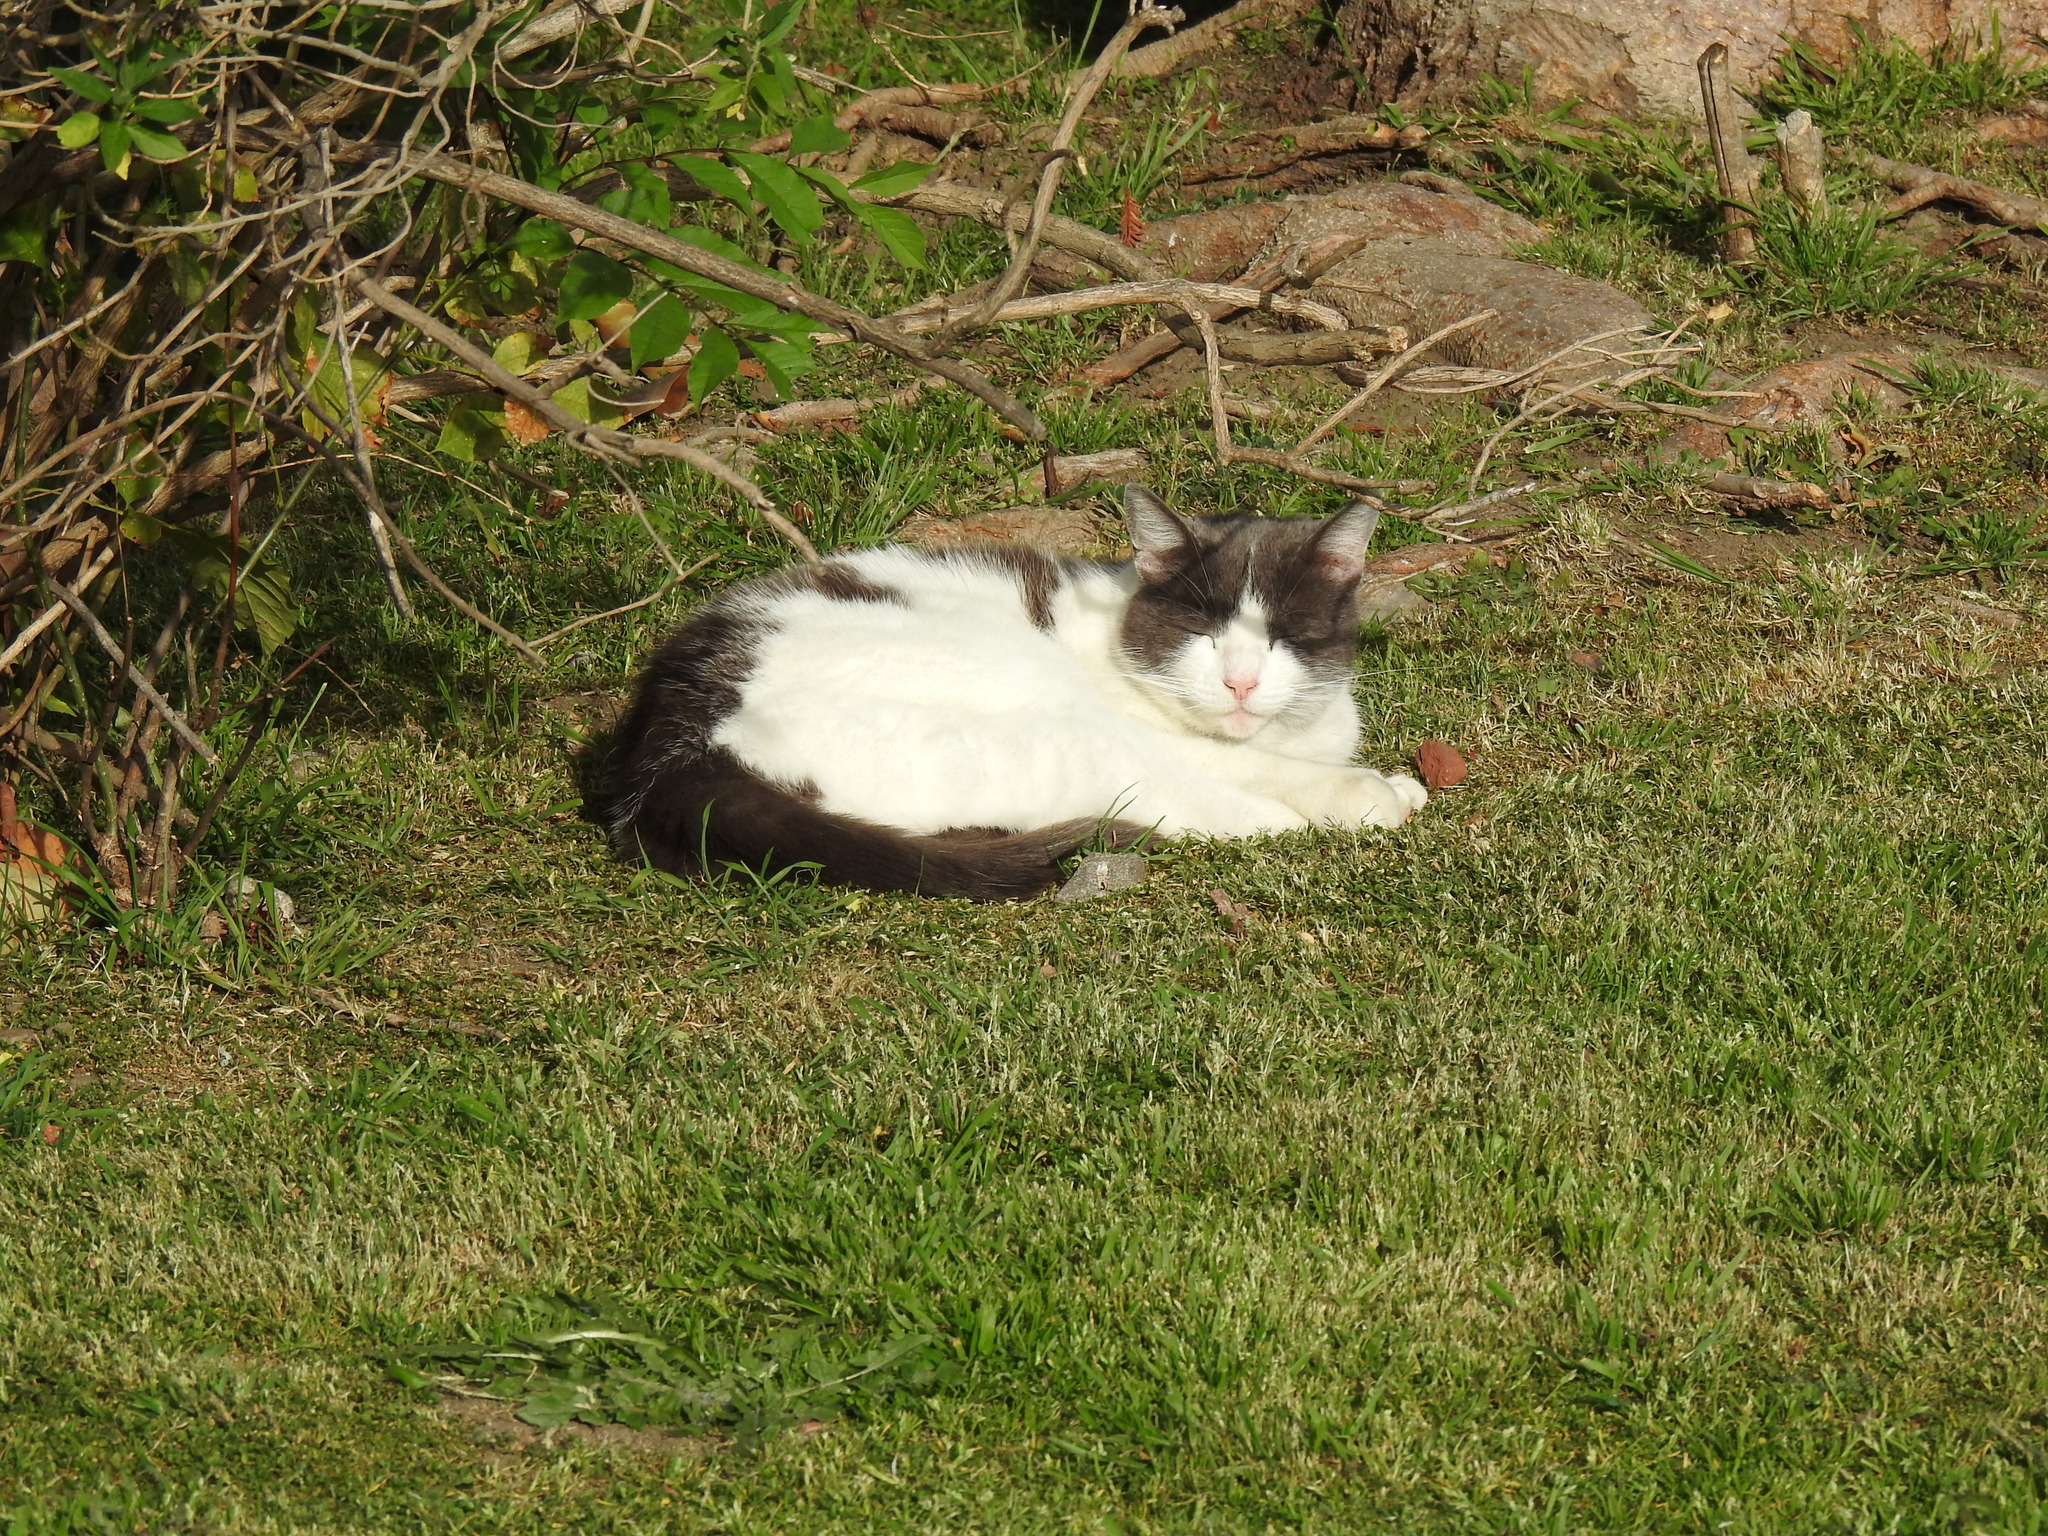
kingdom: Animalia
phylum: Chordata
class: Mammalia
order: Carnivora
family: Felidae
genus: Felis
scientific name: Felis catus
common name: Domestic cat
